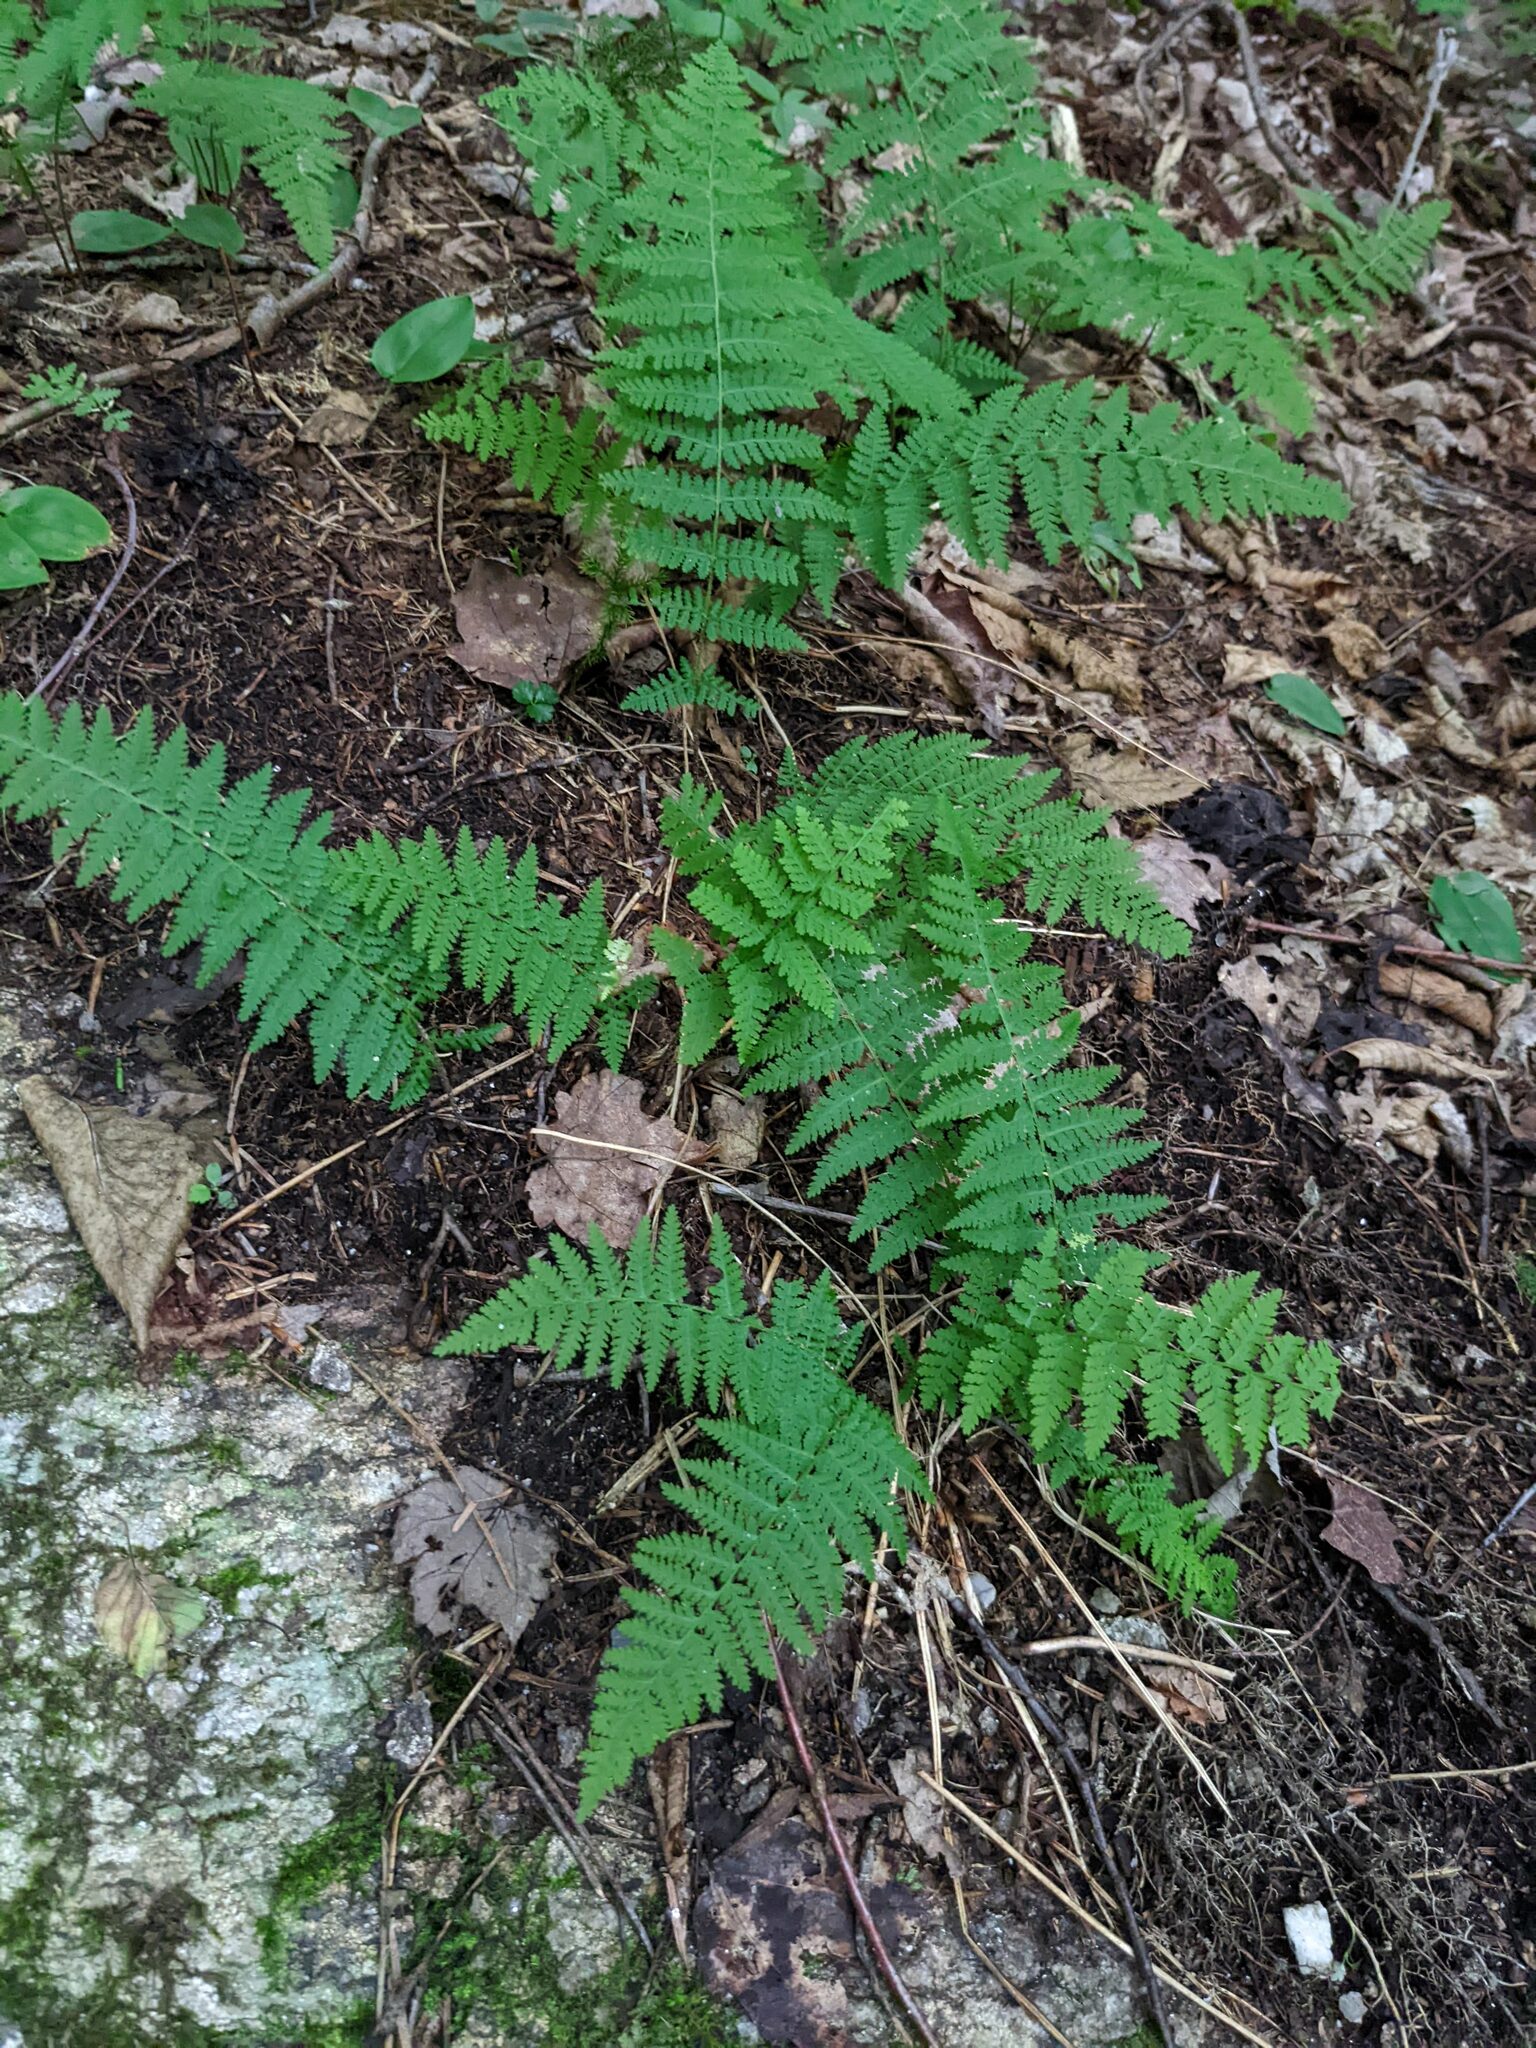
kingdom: Plantae
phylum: Tracheophyta
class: Polypodiopsida
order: Polypodiales
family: Dryopteridaceae
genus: Dryopteris
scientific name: Dryopteris intermedia
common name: Evergreen wood fern
